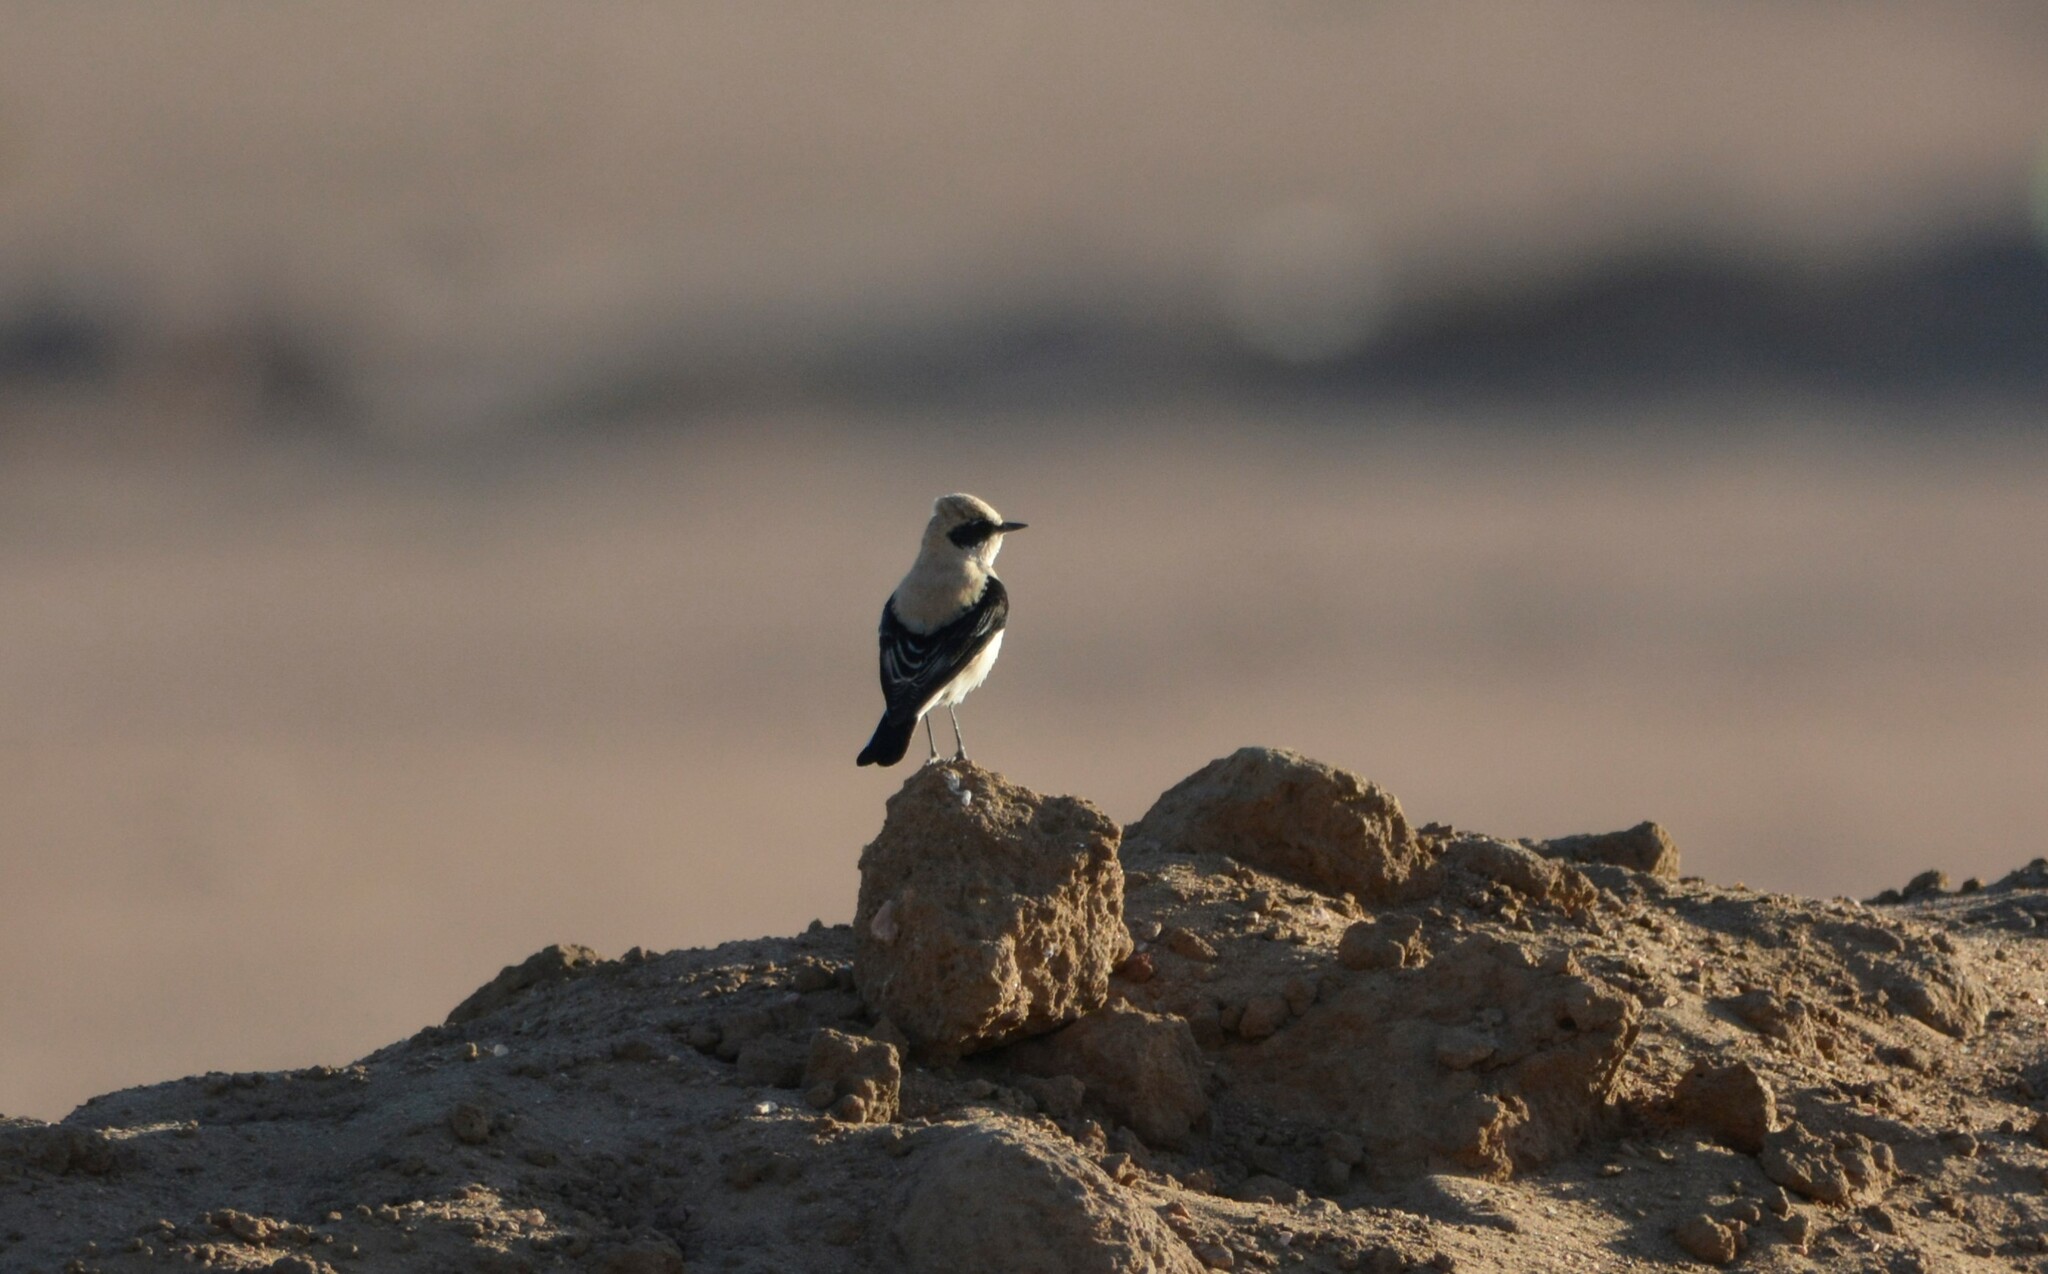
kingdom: Animalia
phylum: Chordata
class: Aves
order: Passeriformes
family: Muscicapidae
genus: Oenanthe
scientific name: Oenanthe hispanica
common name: Black-eared wheatear
